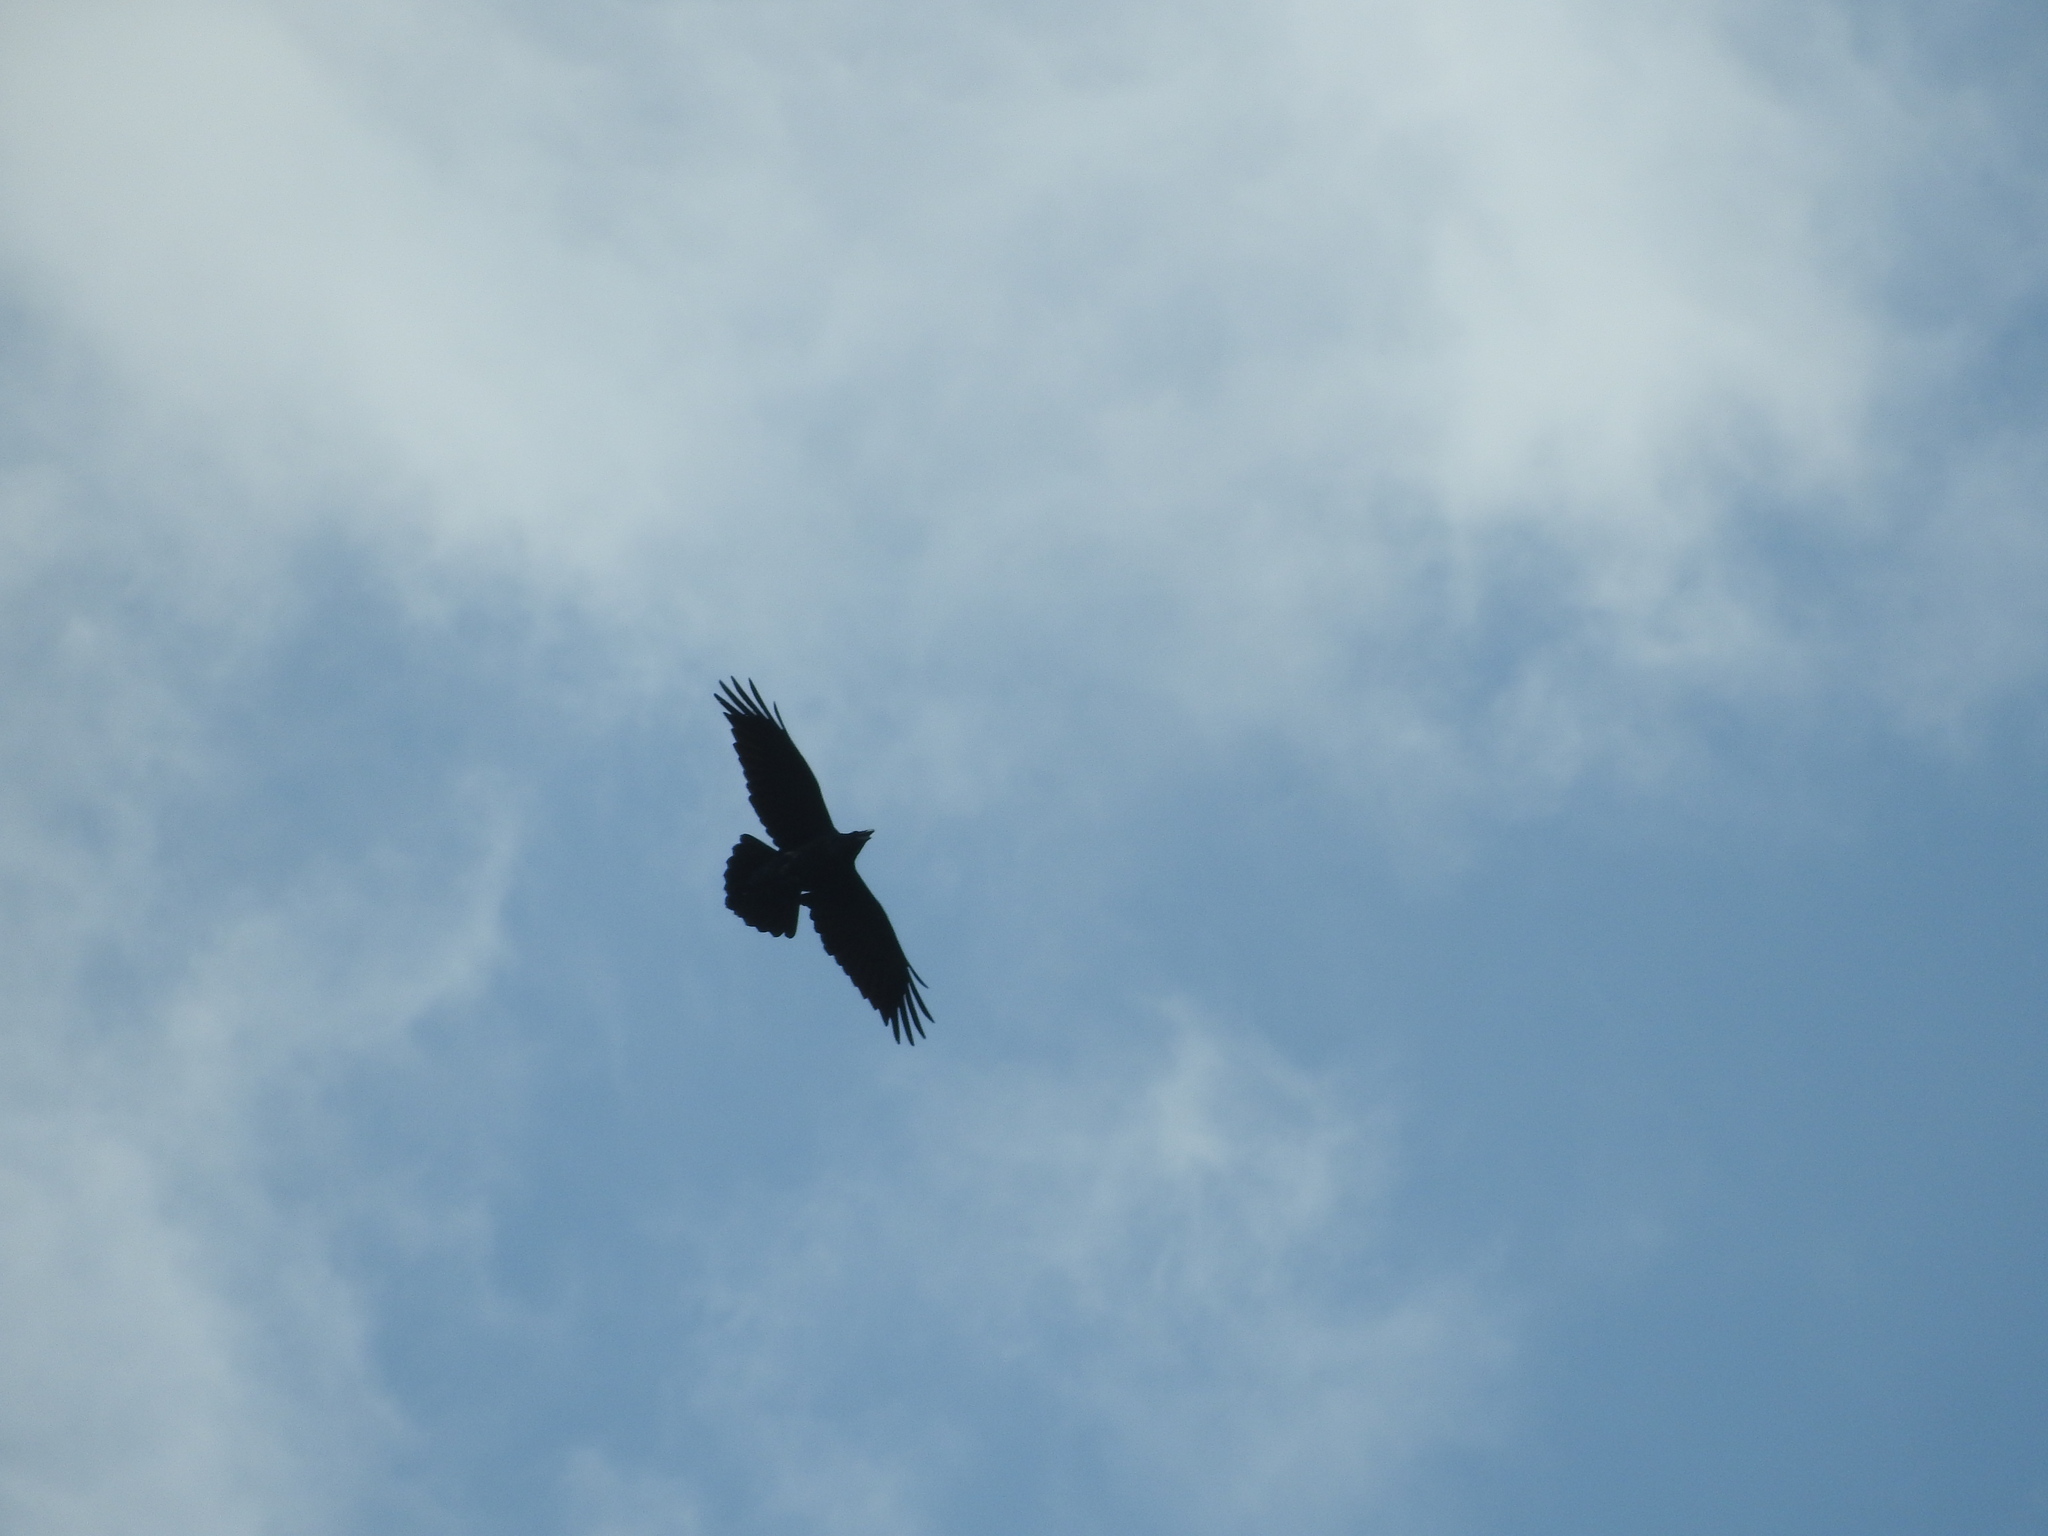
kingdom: Animalia
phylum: Chordata
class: Aves
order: Passeriformes
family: Corvidae
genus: Corvus
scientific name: Corvus corax
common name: Common raven
